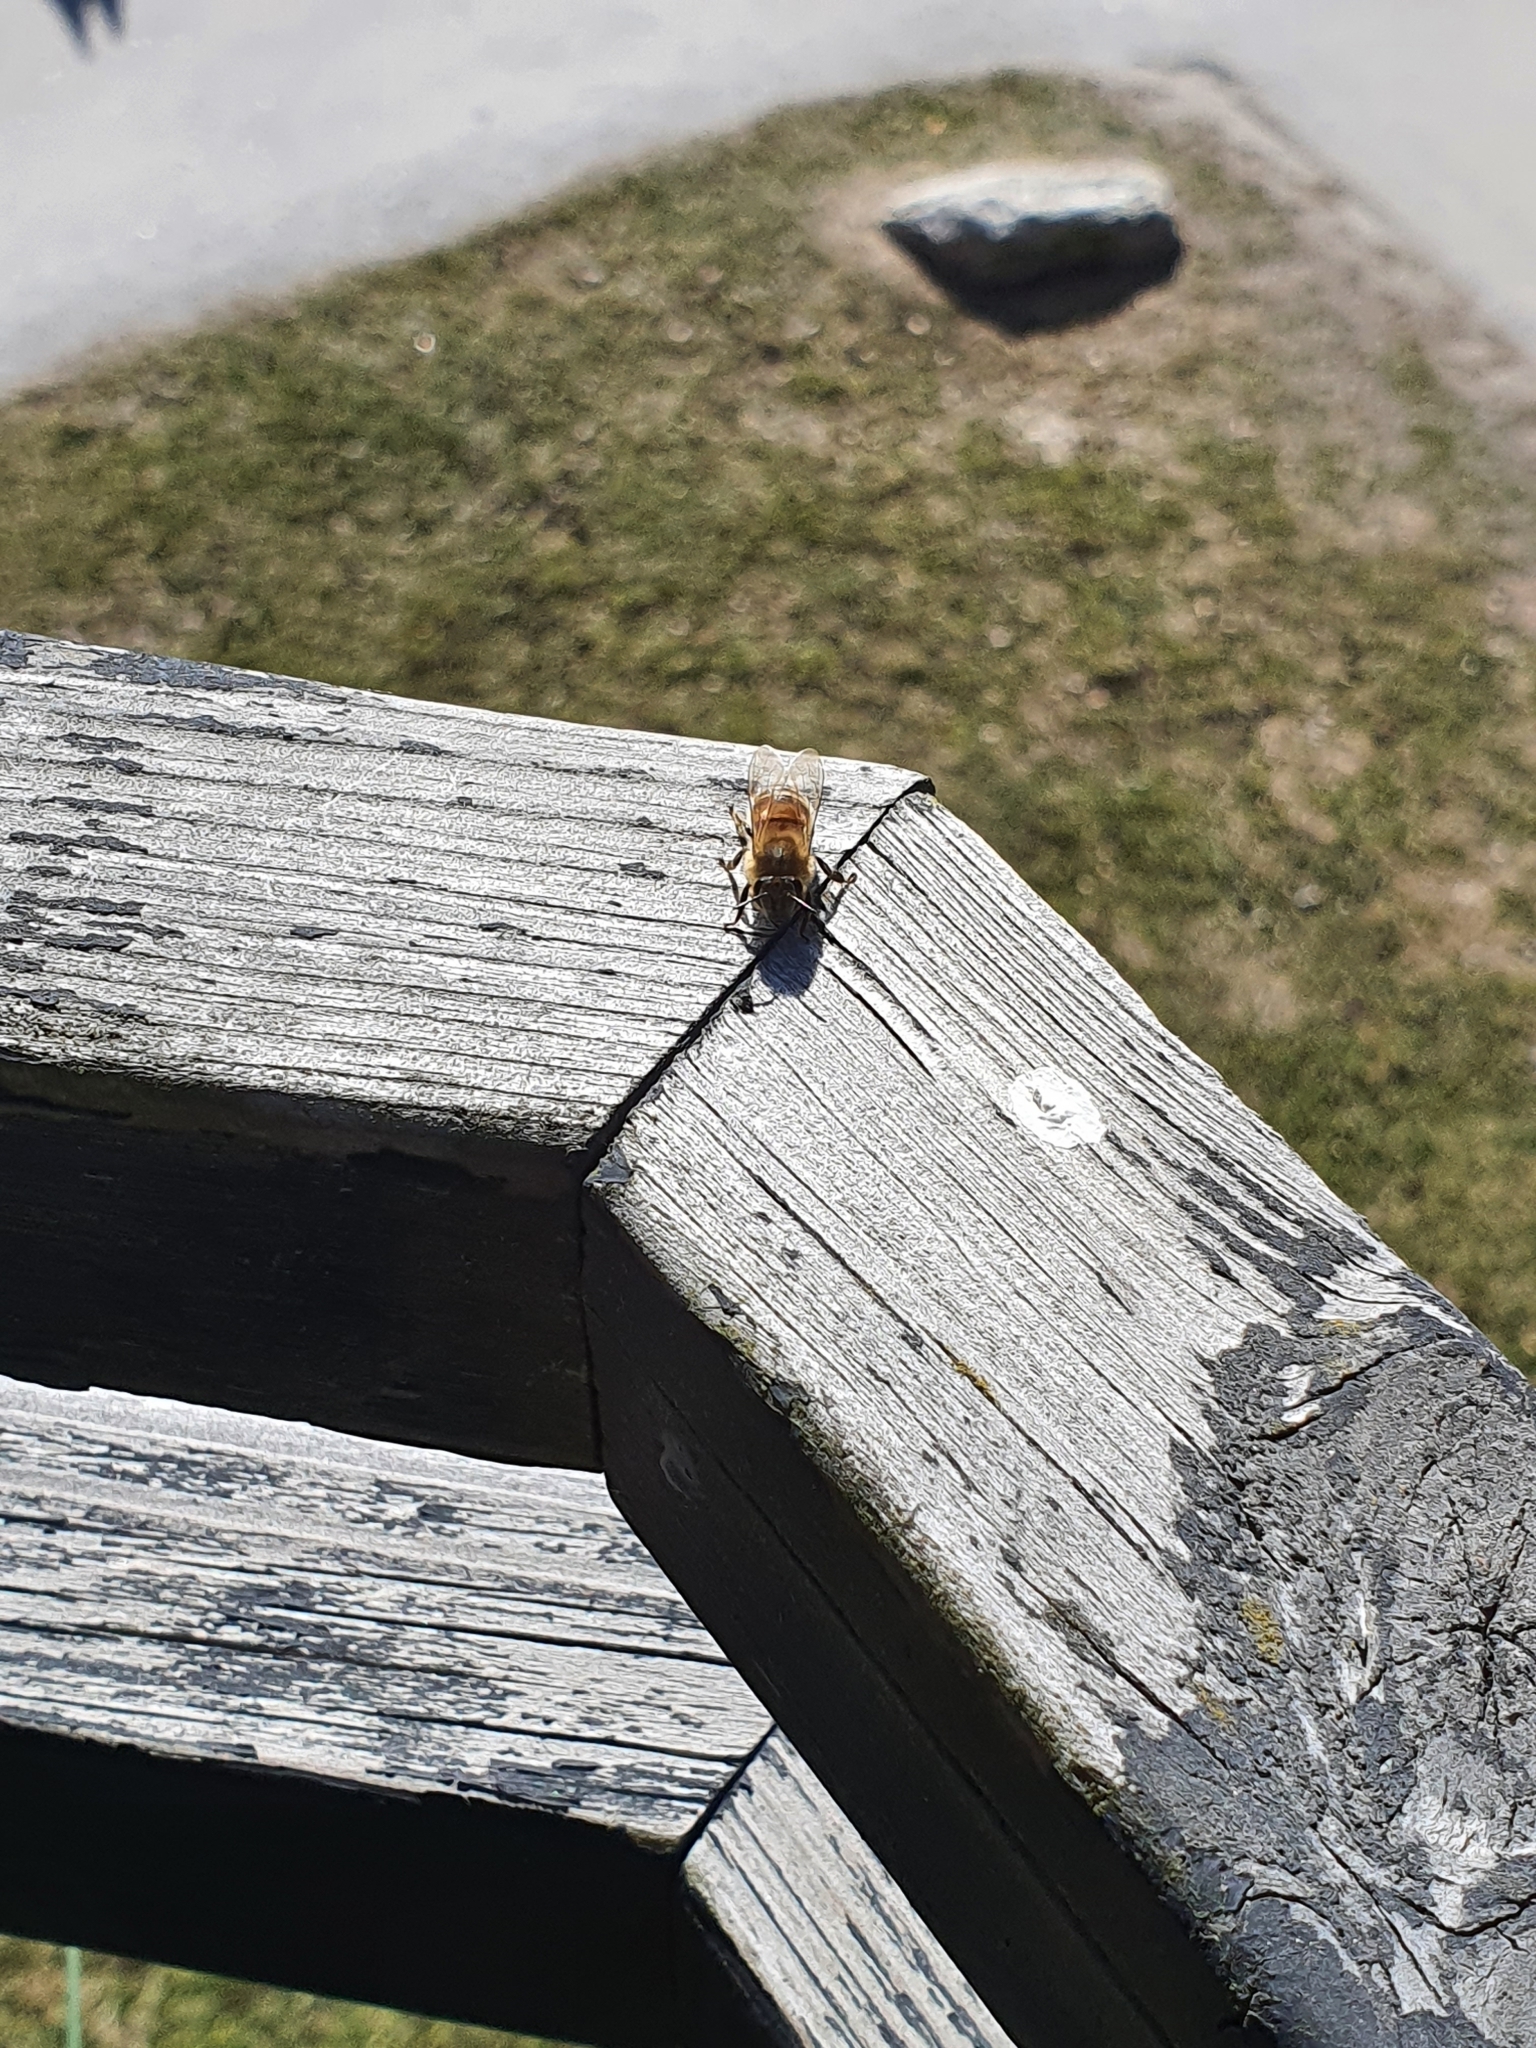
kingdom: Animalia
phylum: Arthropoda
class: Insecta
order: Hymenoptera
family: Apidae
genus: Apis
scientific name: Apis mellifera
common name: Honey bee
